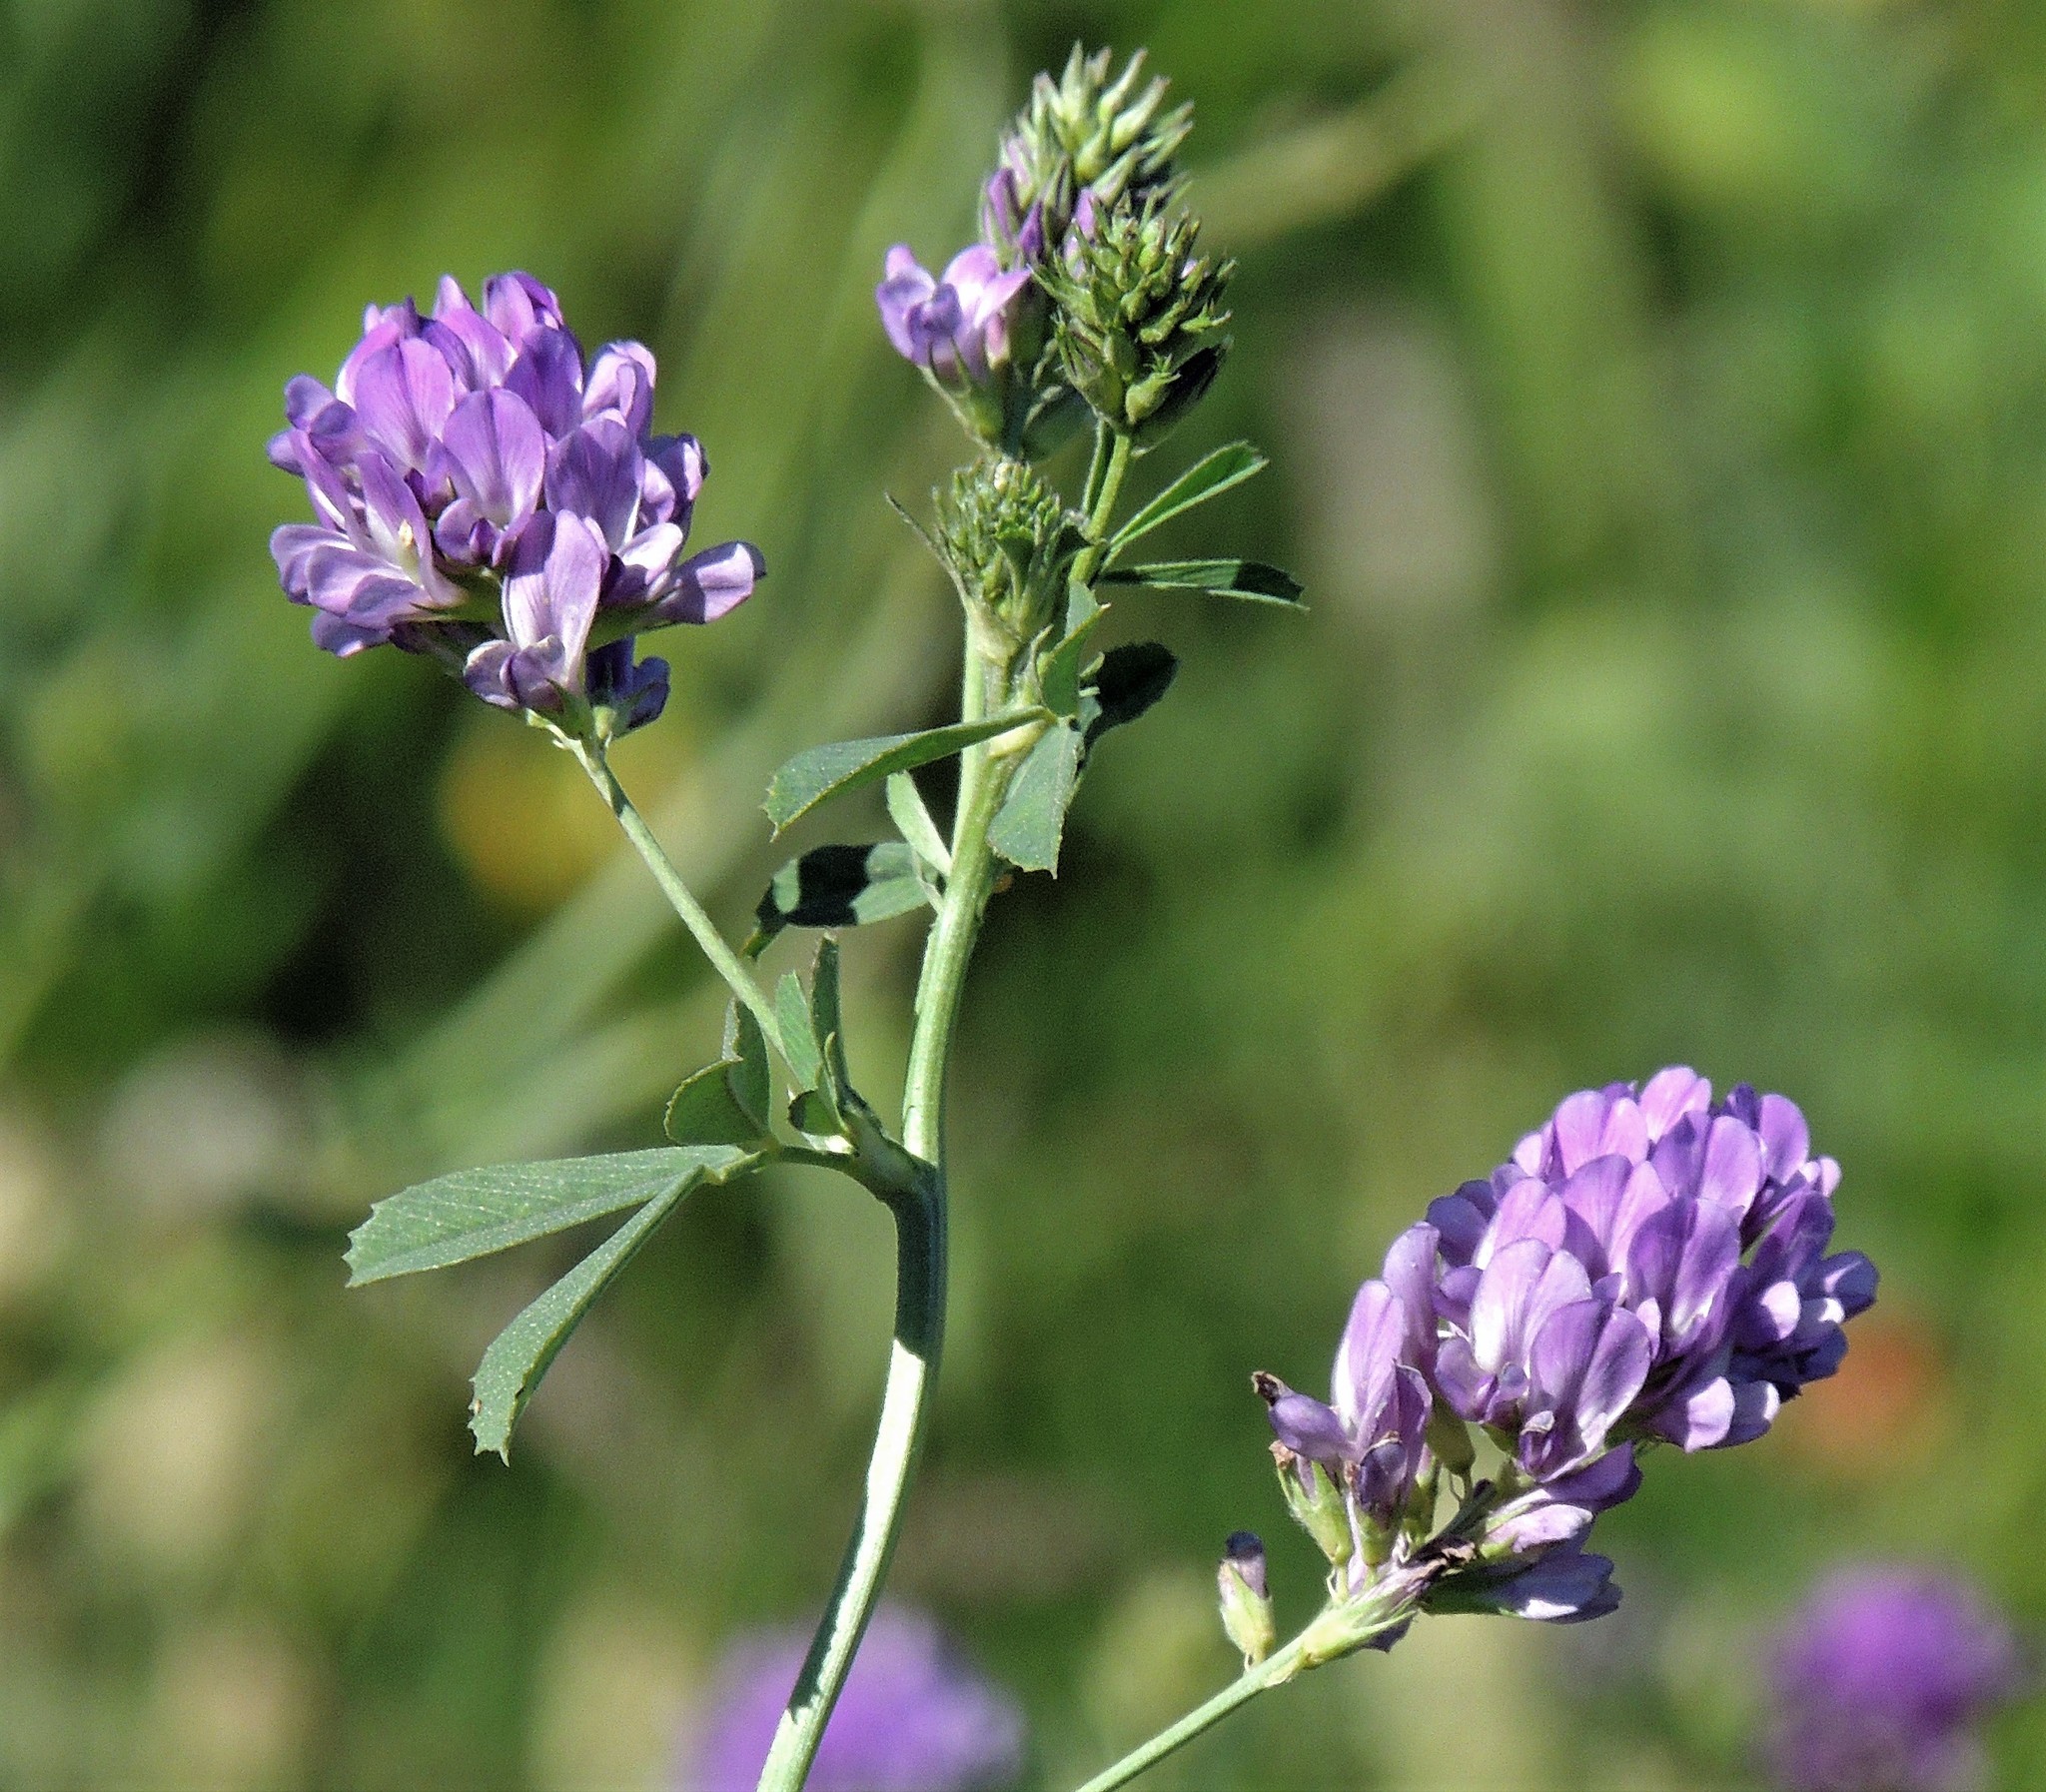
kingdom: Plantae
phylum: Tracheophyta
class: Magnoliopsida
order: Fabales
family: Fabaceae
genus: Medicago
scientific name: Medicago sativa
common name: Alfalfa
